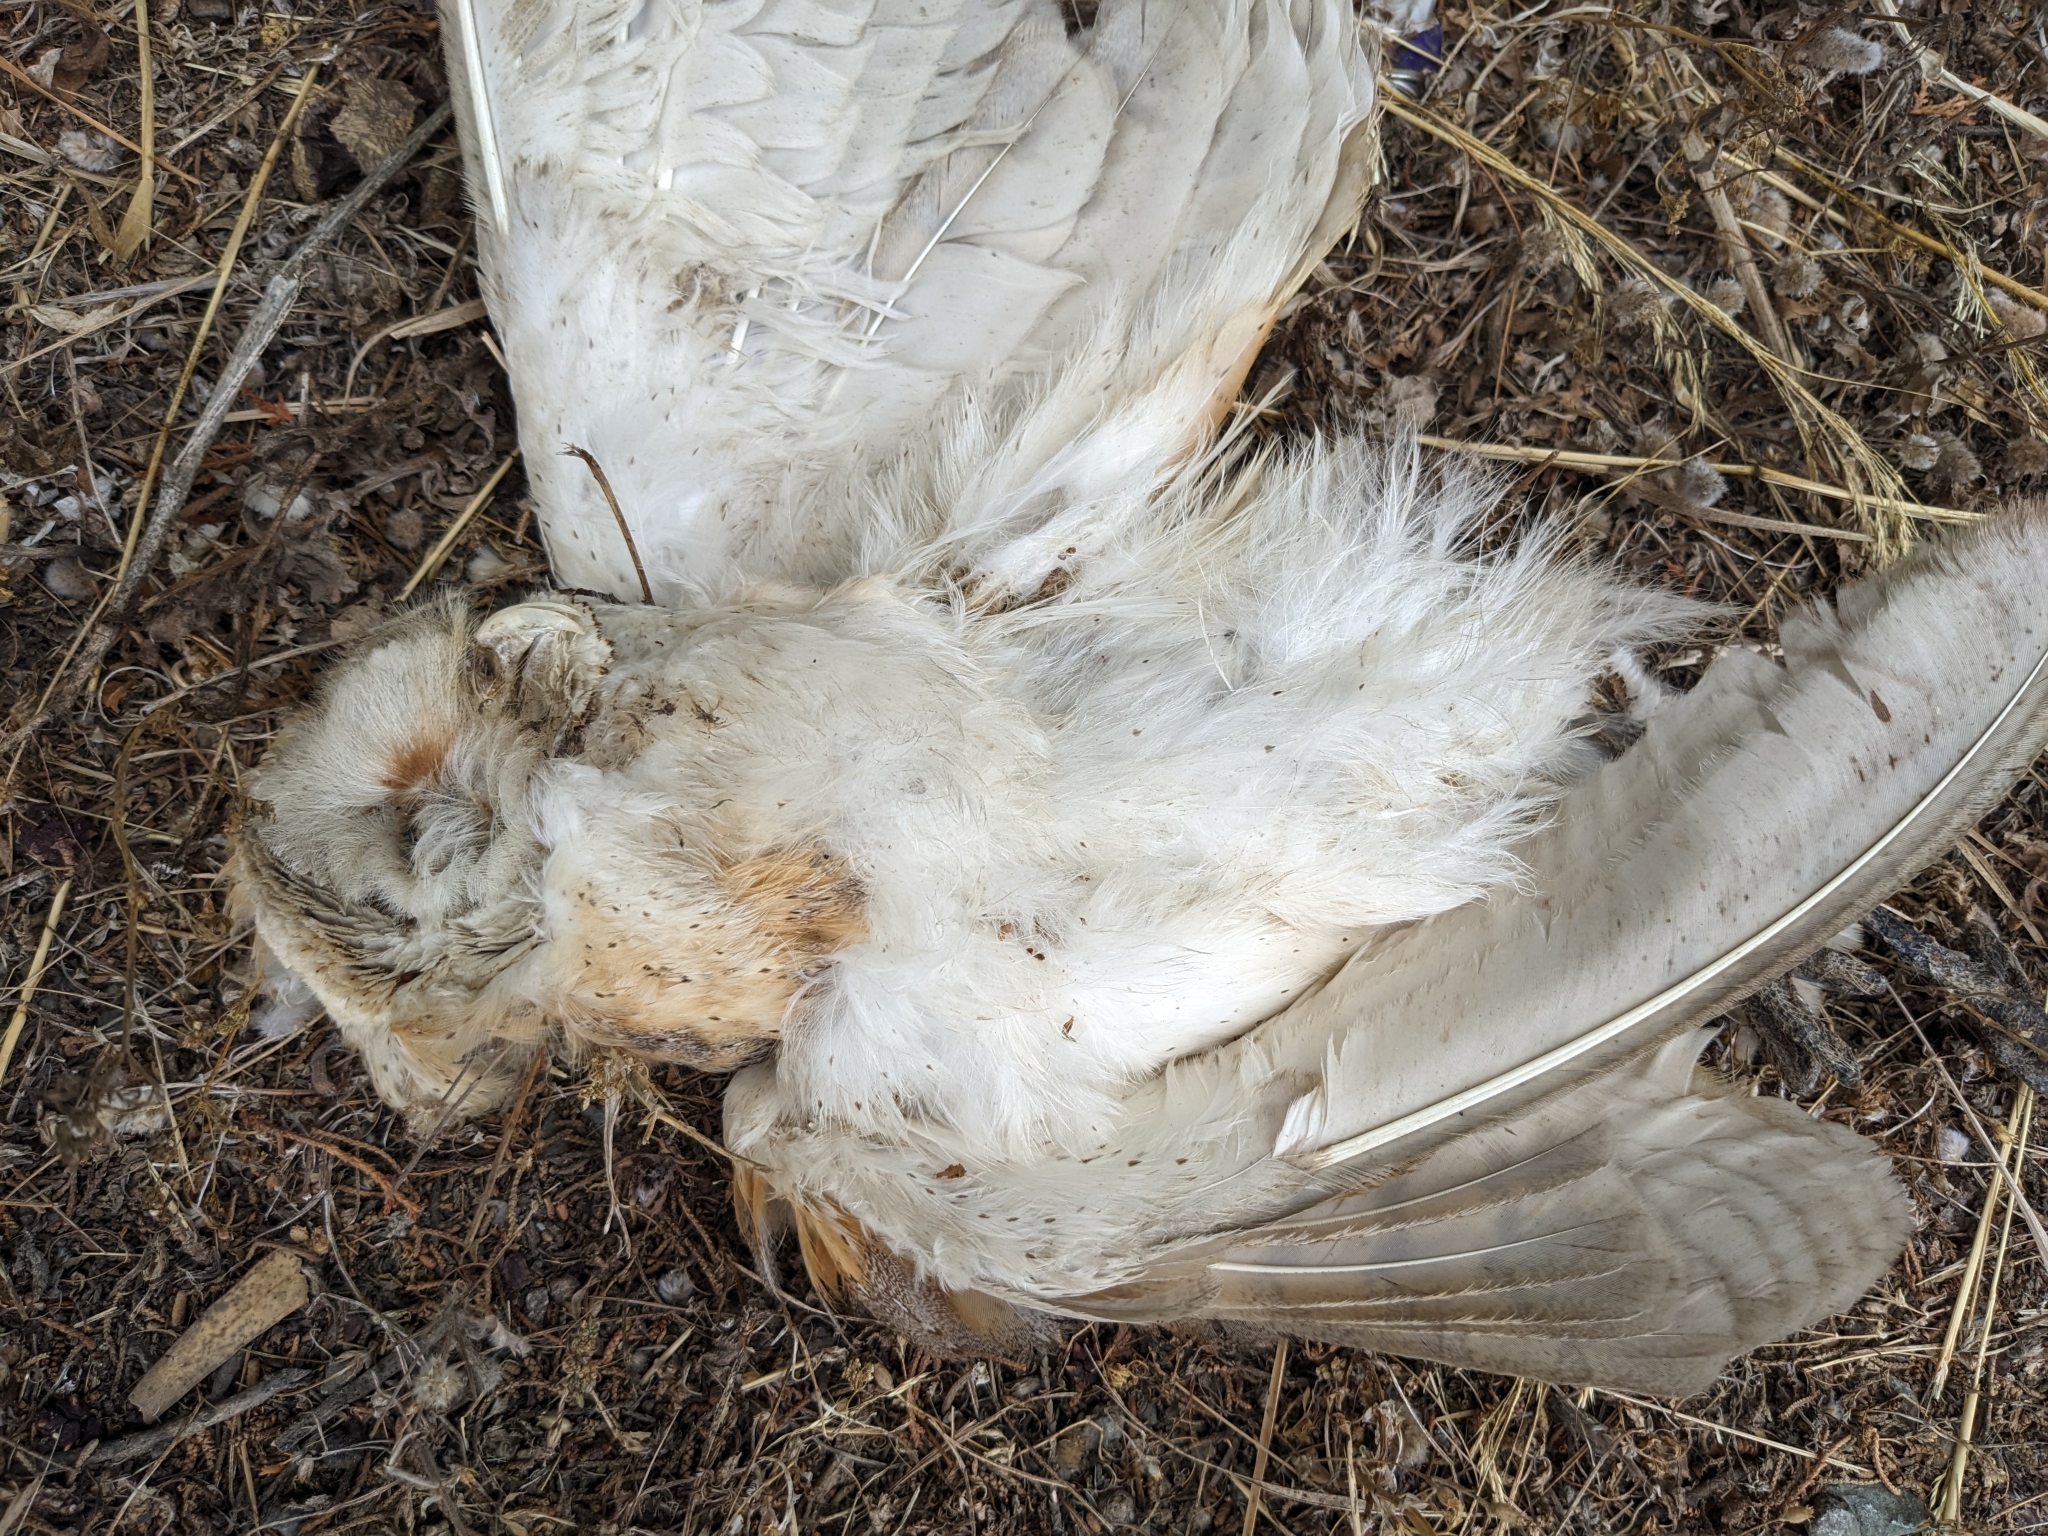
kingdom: Animalia
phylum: Chordata
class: Aves
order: Strigiformes
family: Tytonidae
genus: Tyto
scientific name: Tyto alba
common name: Barn owl
